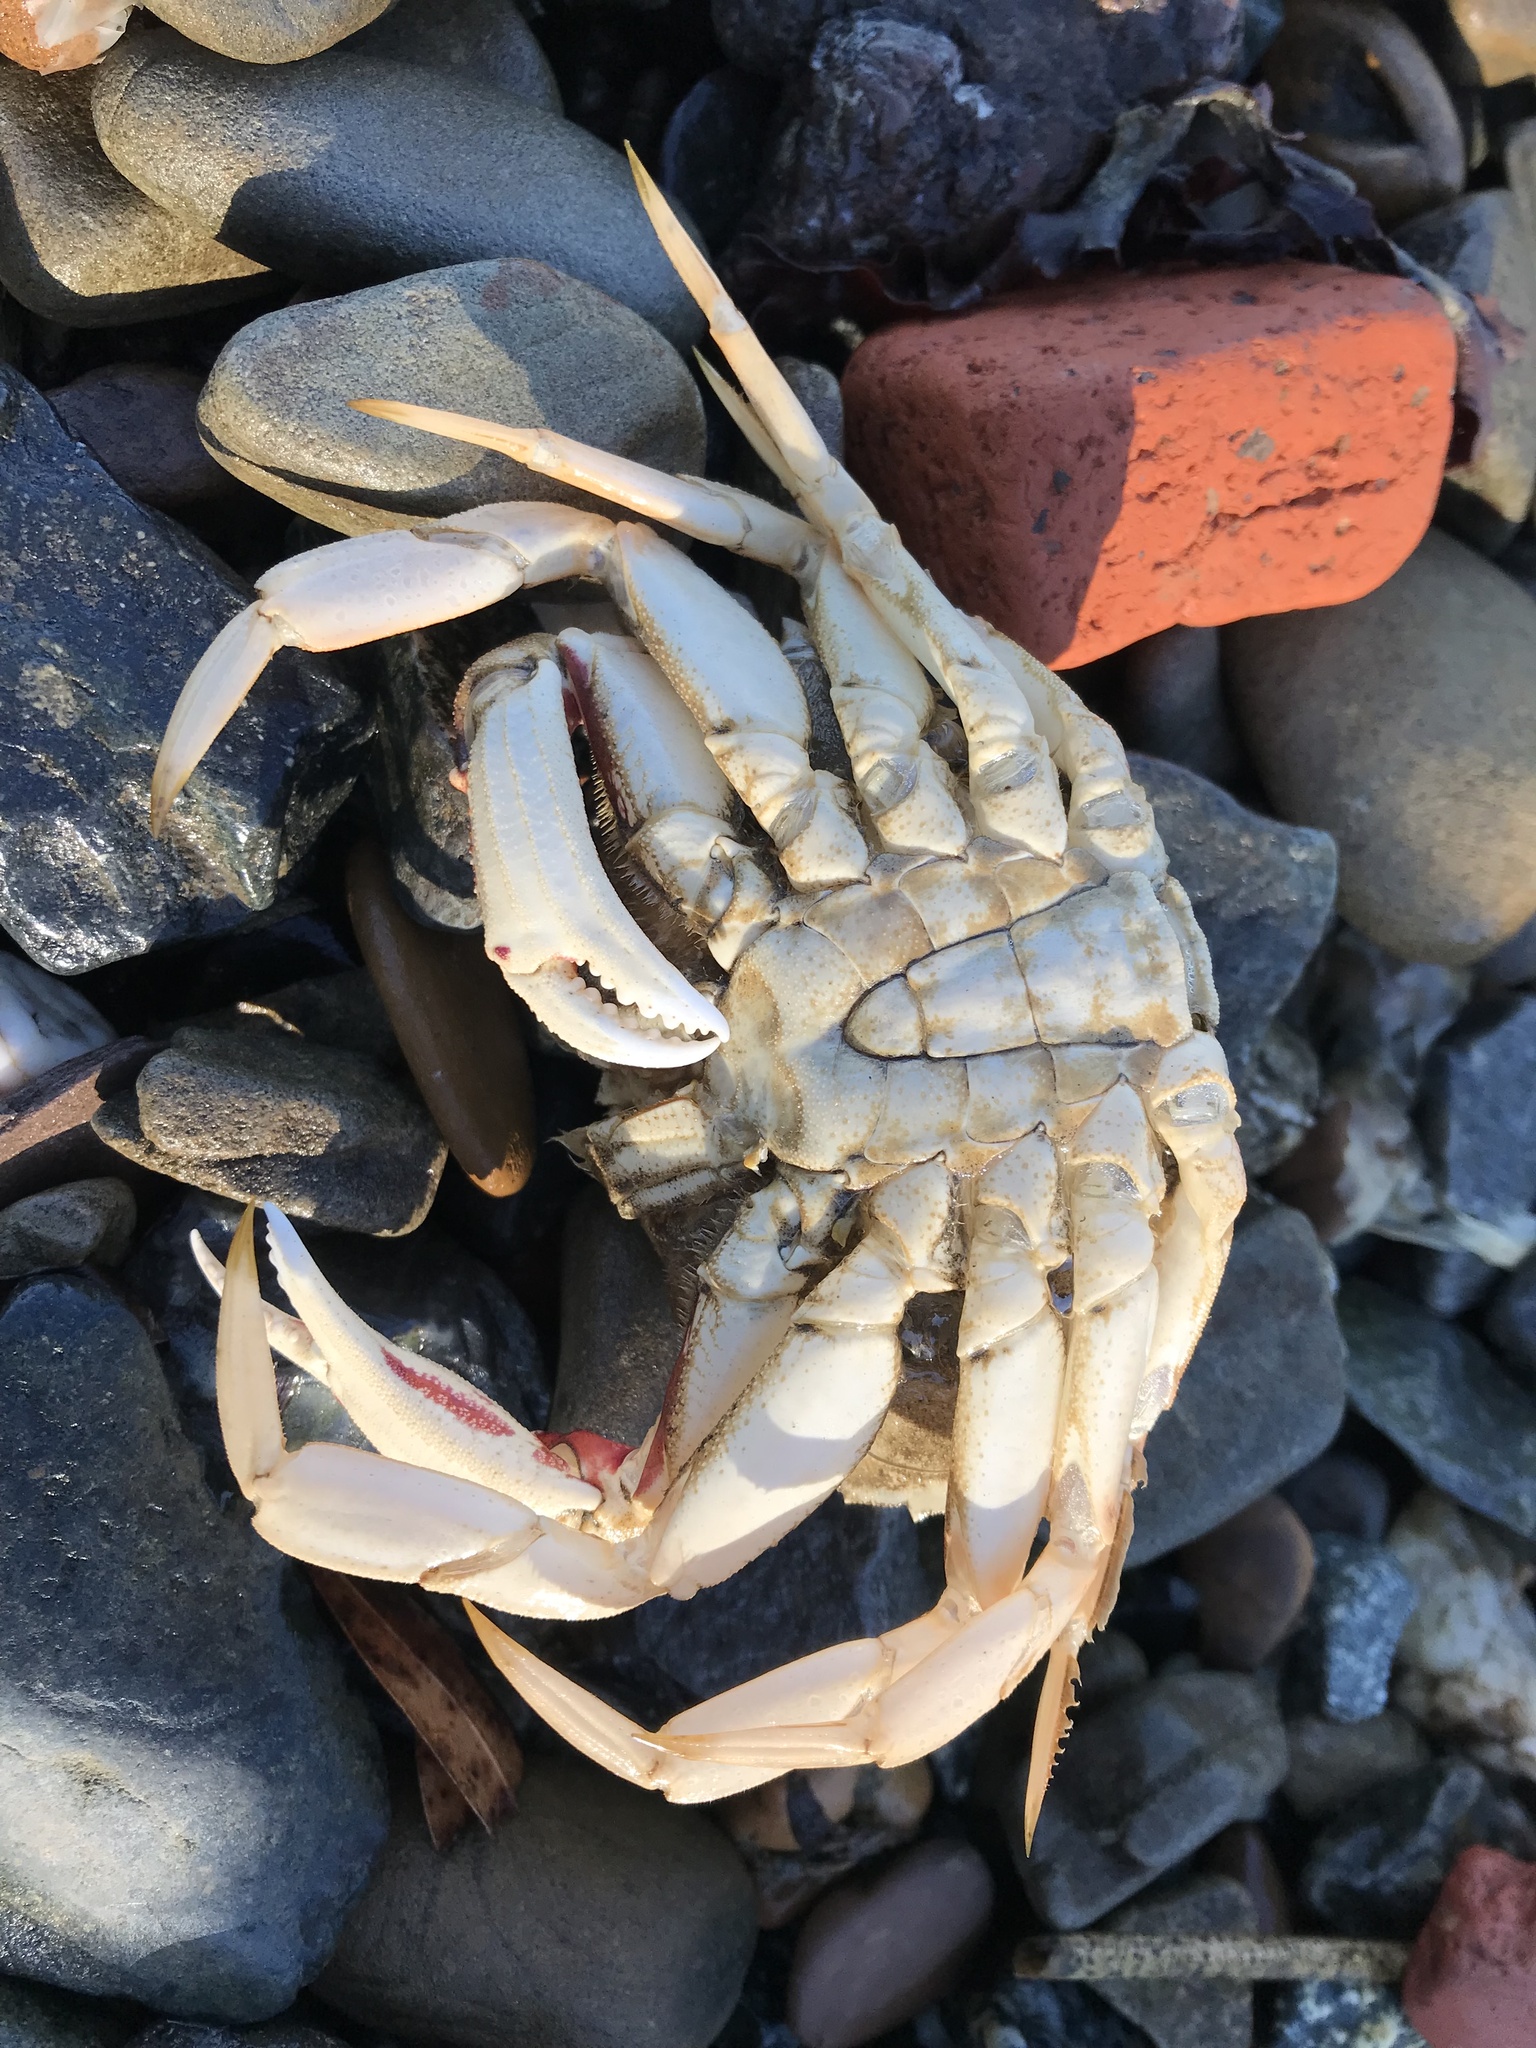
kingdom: Animalia
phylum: Arthropoda
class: Malacostraca
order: Decapoda
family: Cancridae
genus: Metacarcinus
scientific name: Metacarcinus magister
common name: Californian crab
